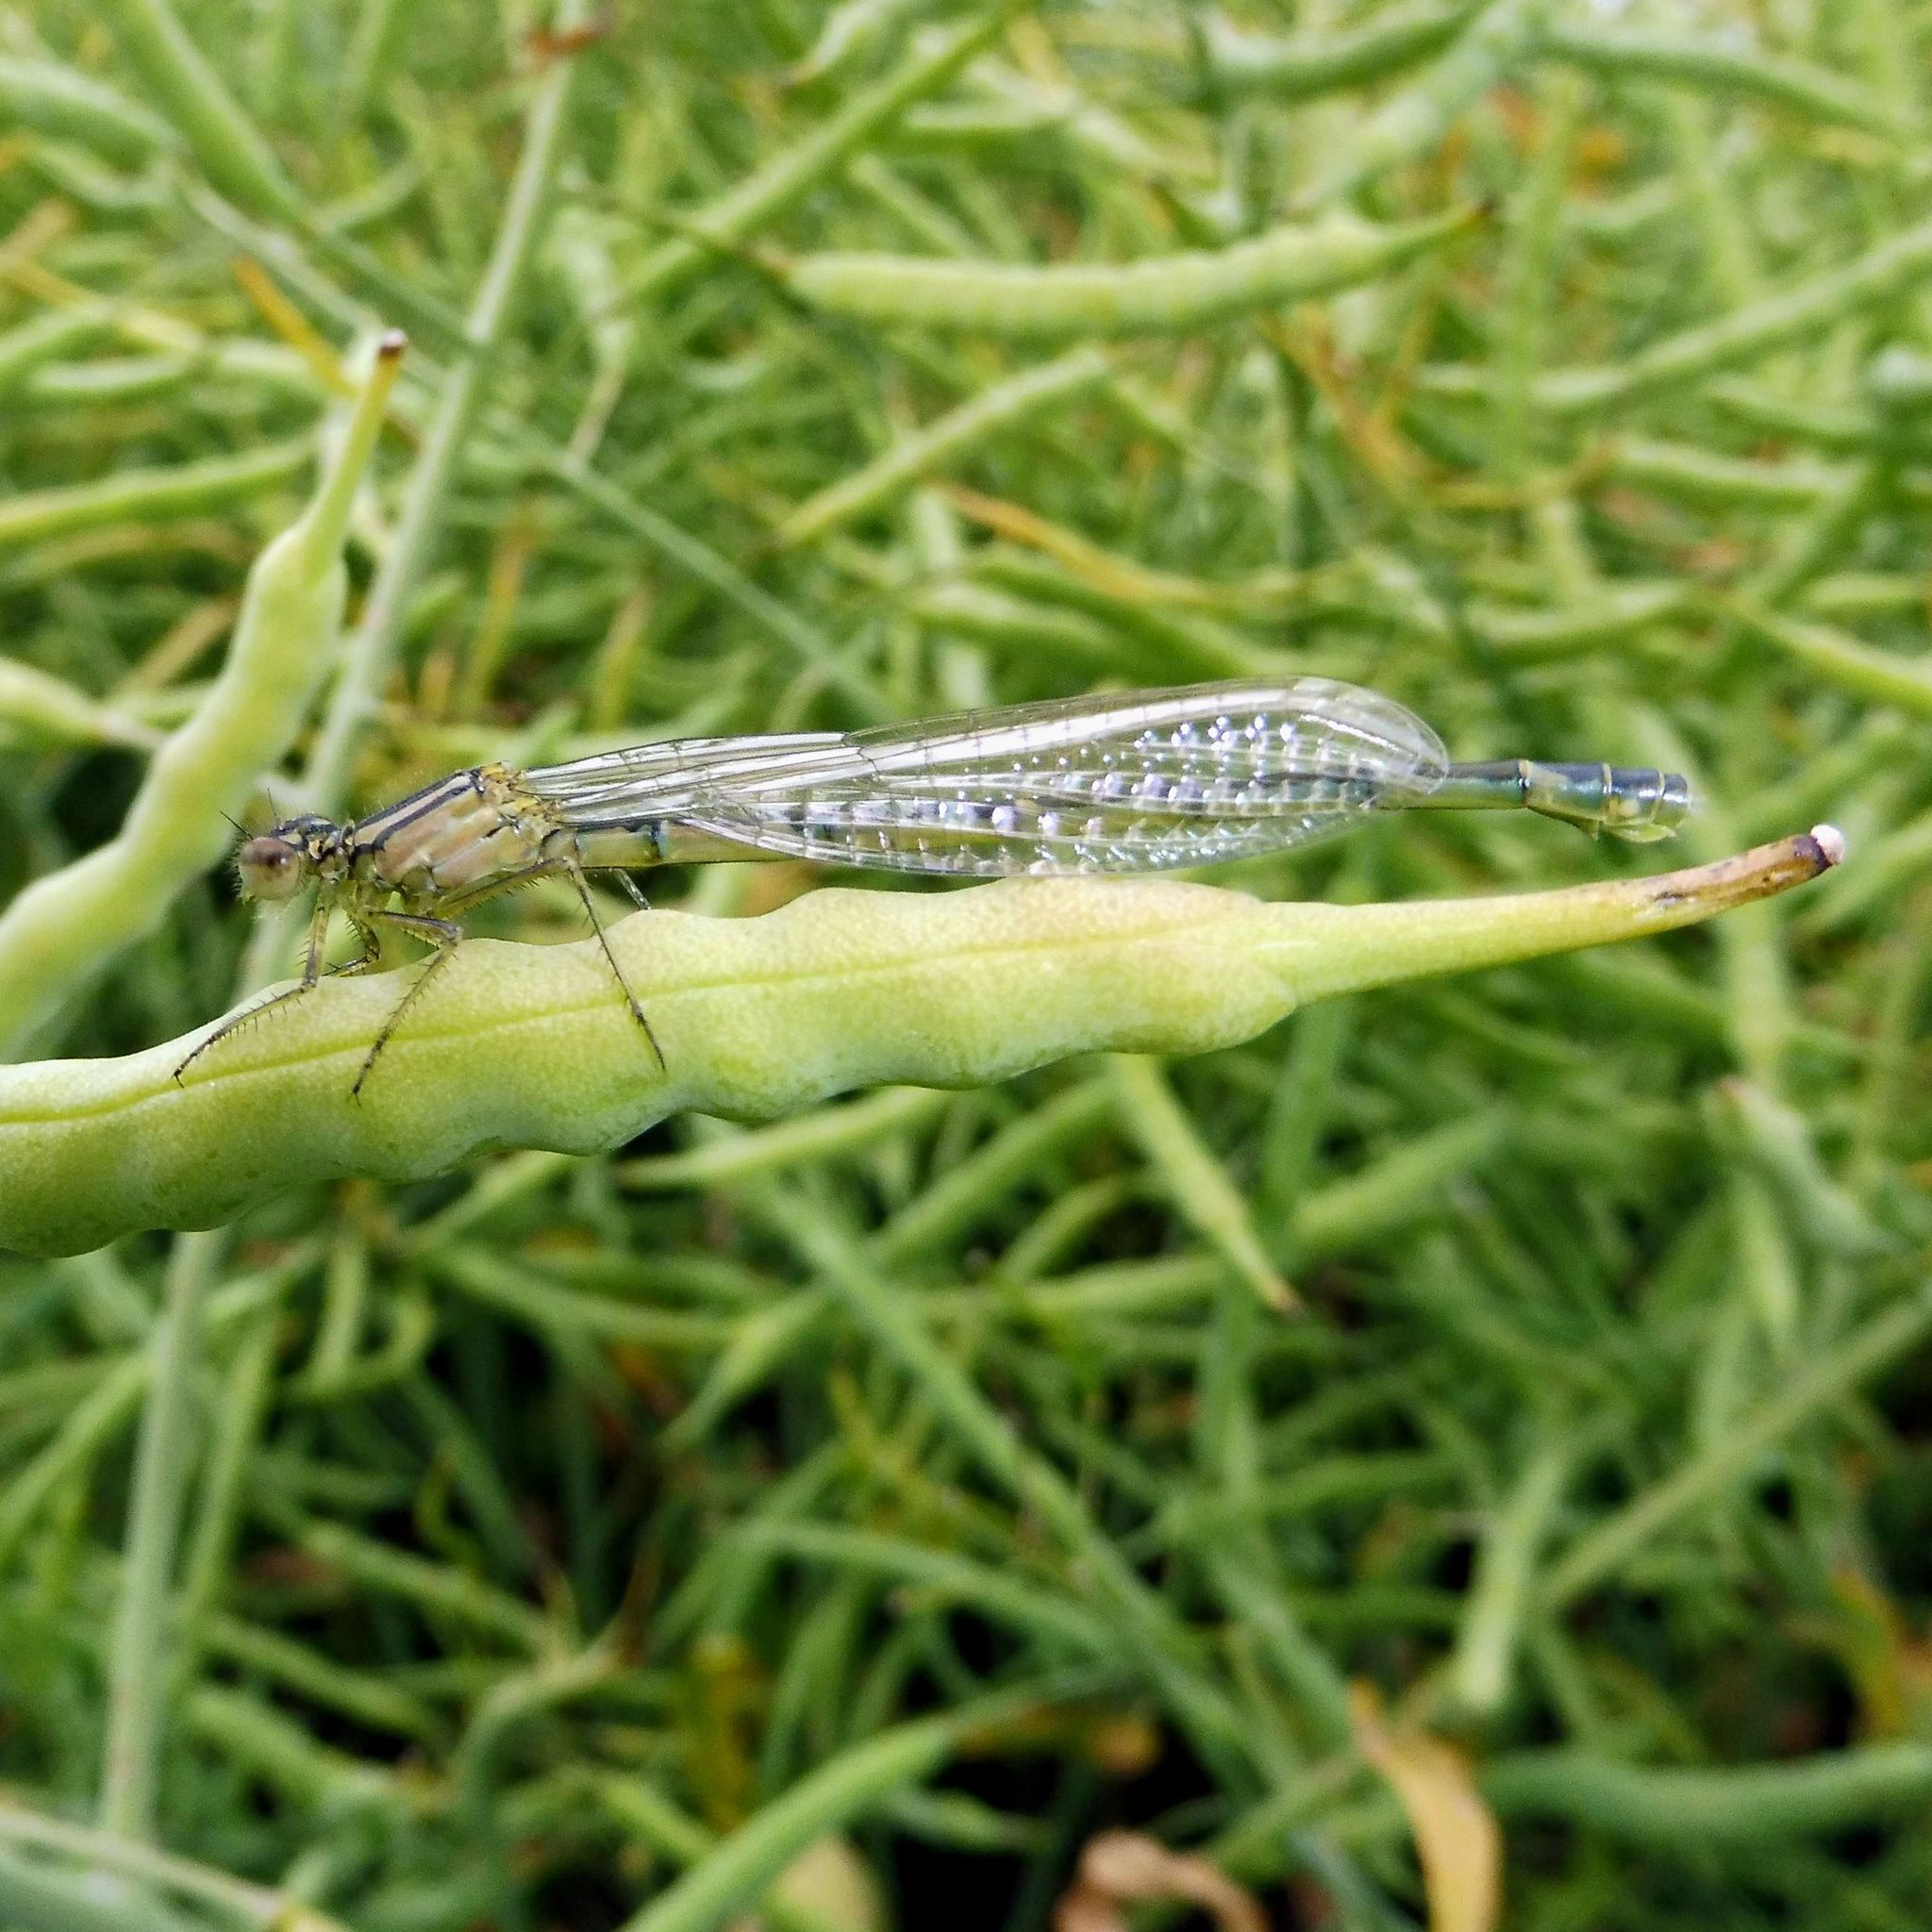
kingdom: Animalia
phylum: Arthropoda
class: Insecta
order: Odonata
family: Coenagrionidae
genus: Enallagma
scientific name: Enallagma cyathigerum
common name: Common blue damselfly
